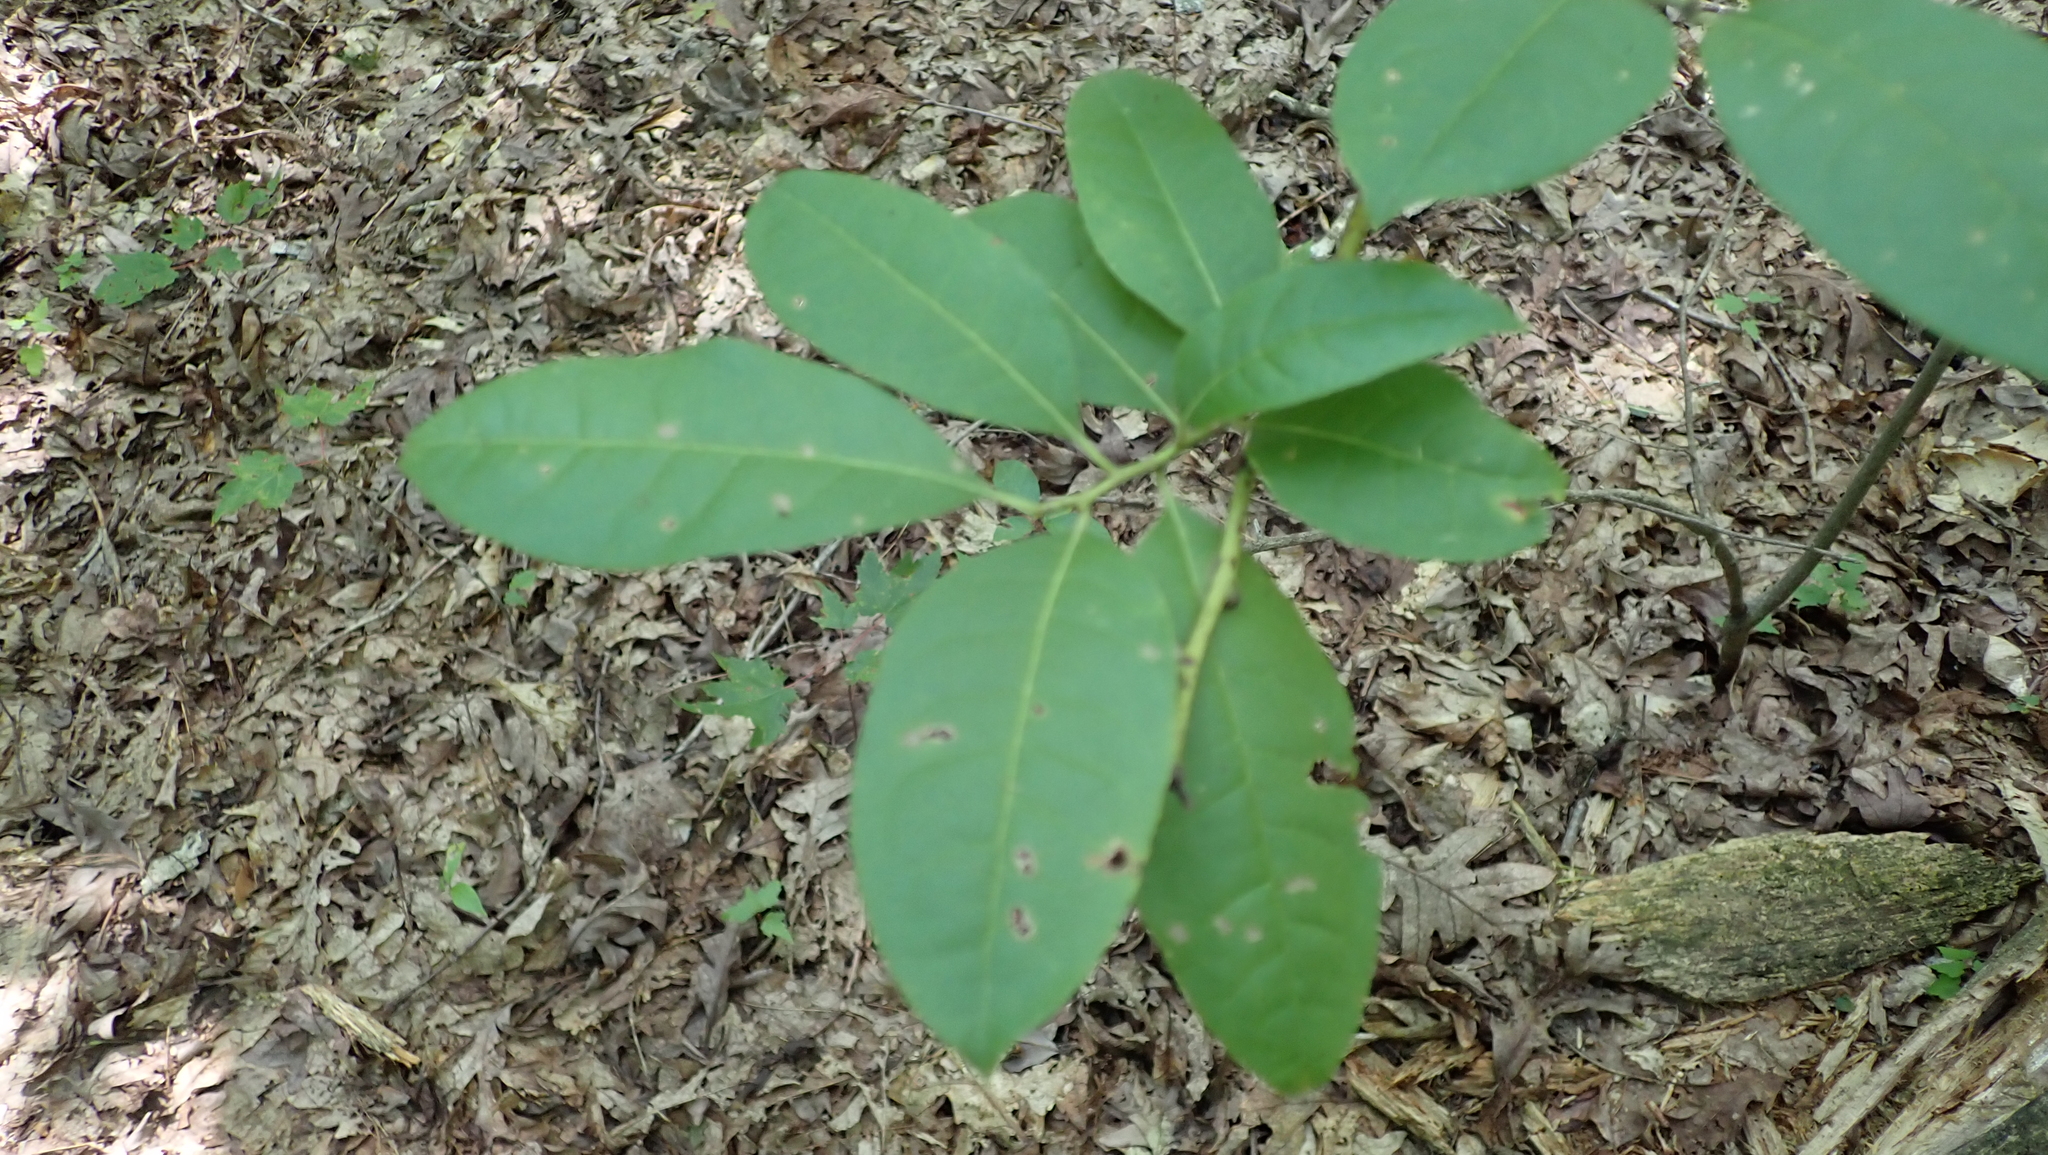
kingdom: Plantae
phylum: Tracheophyta
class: Magnoliopsida
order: Ericales
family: Ericaceae
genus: Oxydendrum
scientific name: Oxydendrum arboreum
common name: Sourwood
